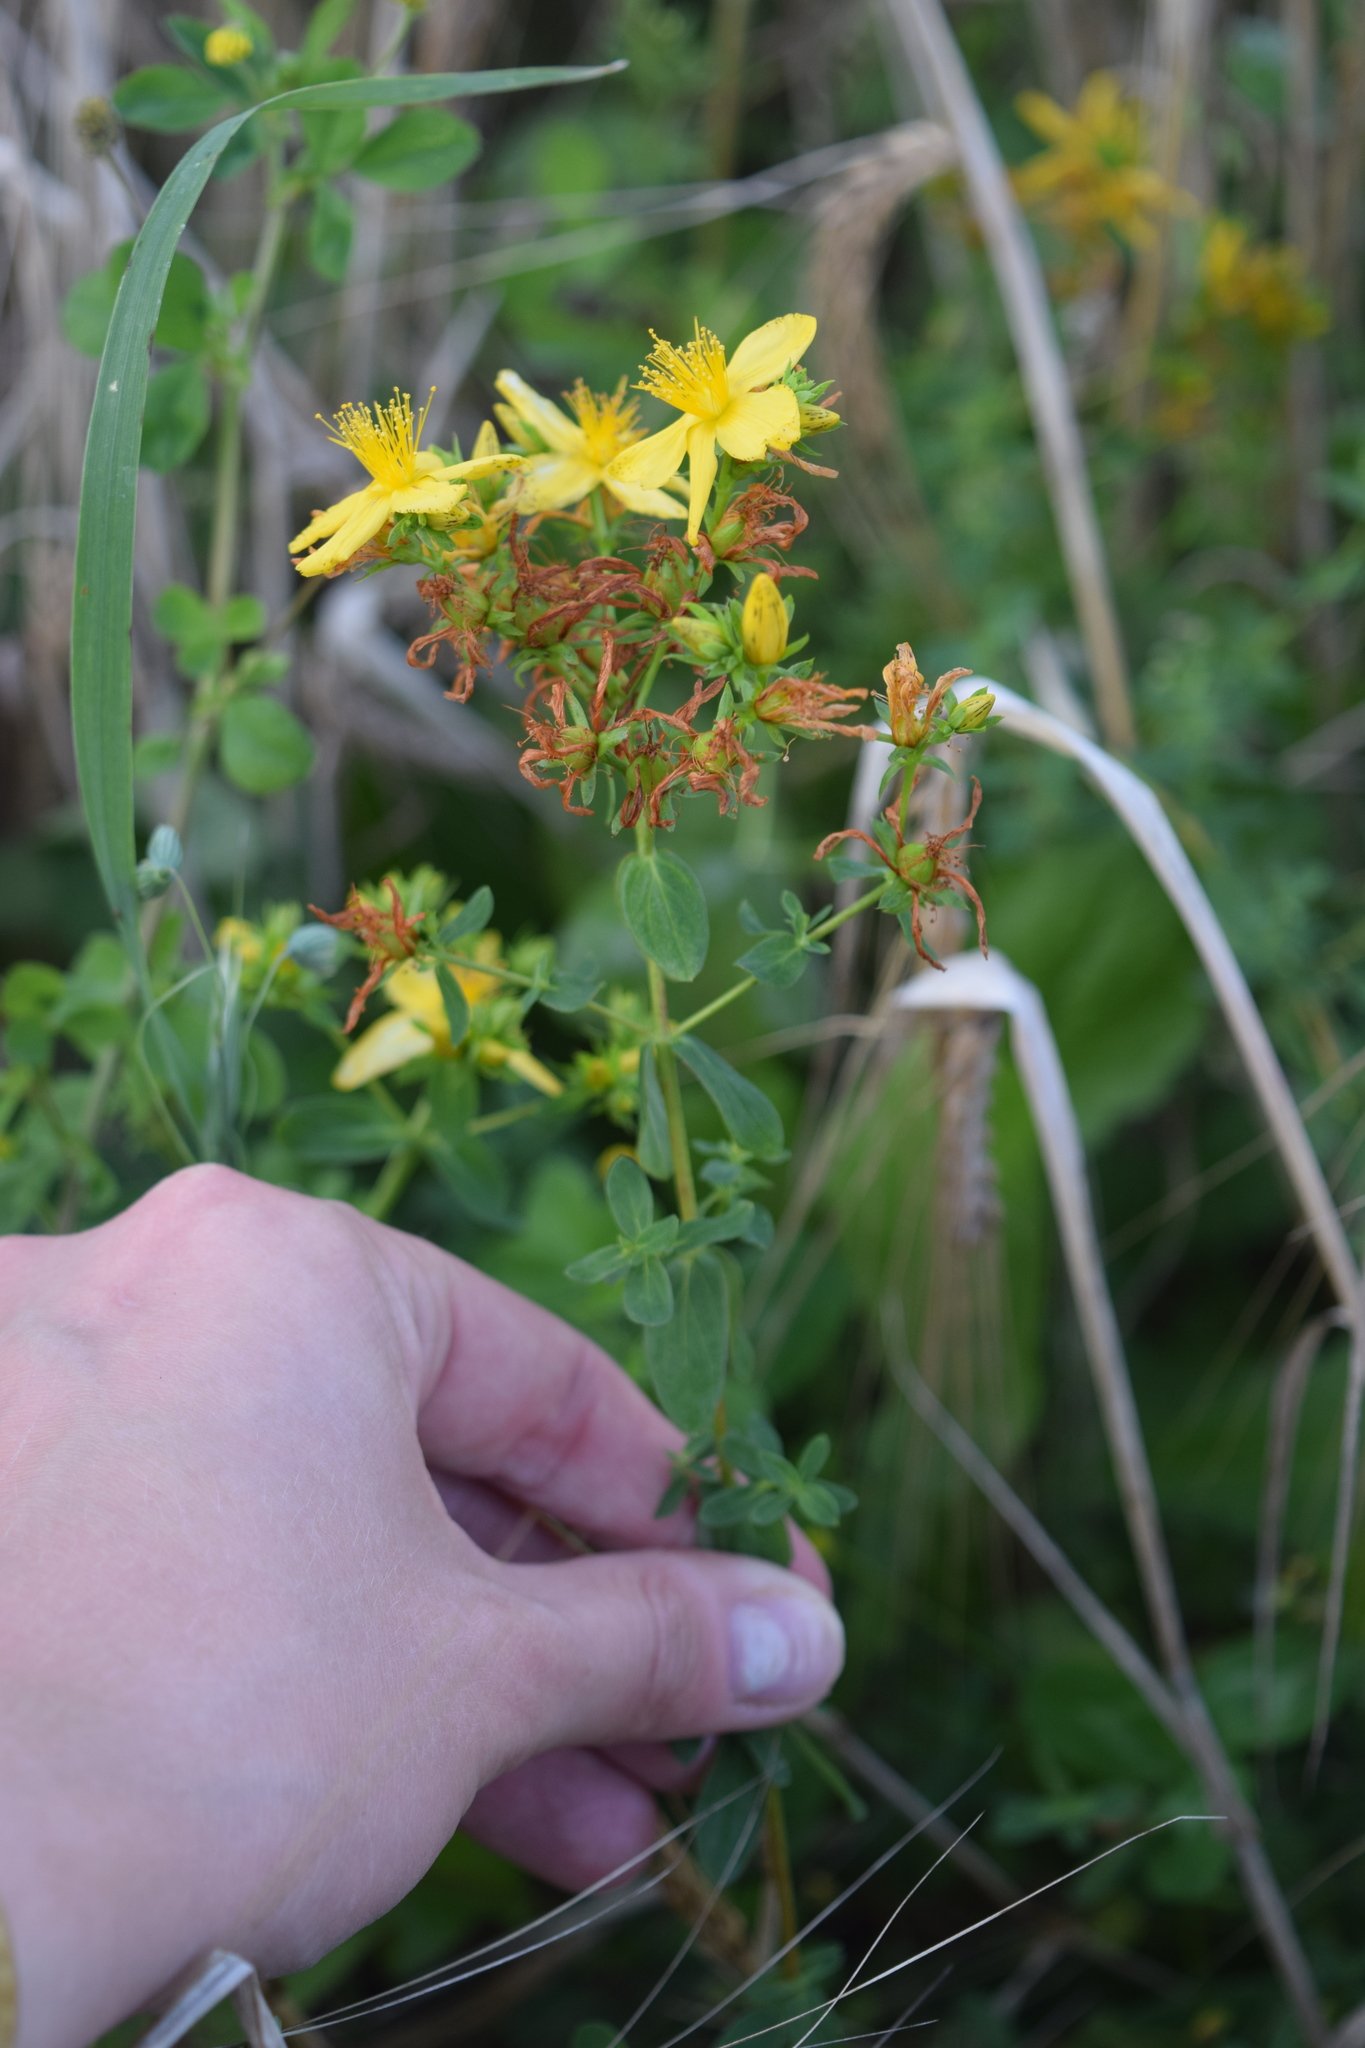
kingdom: Plantae
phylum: Tracheophyta
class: Magnoliopsida
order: Malpighiales
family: Hypericaceae
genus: Hypericum
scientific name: Hypericum perforatum
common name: Common st. johnswort
